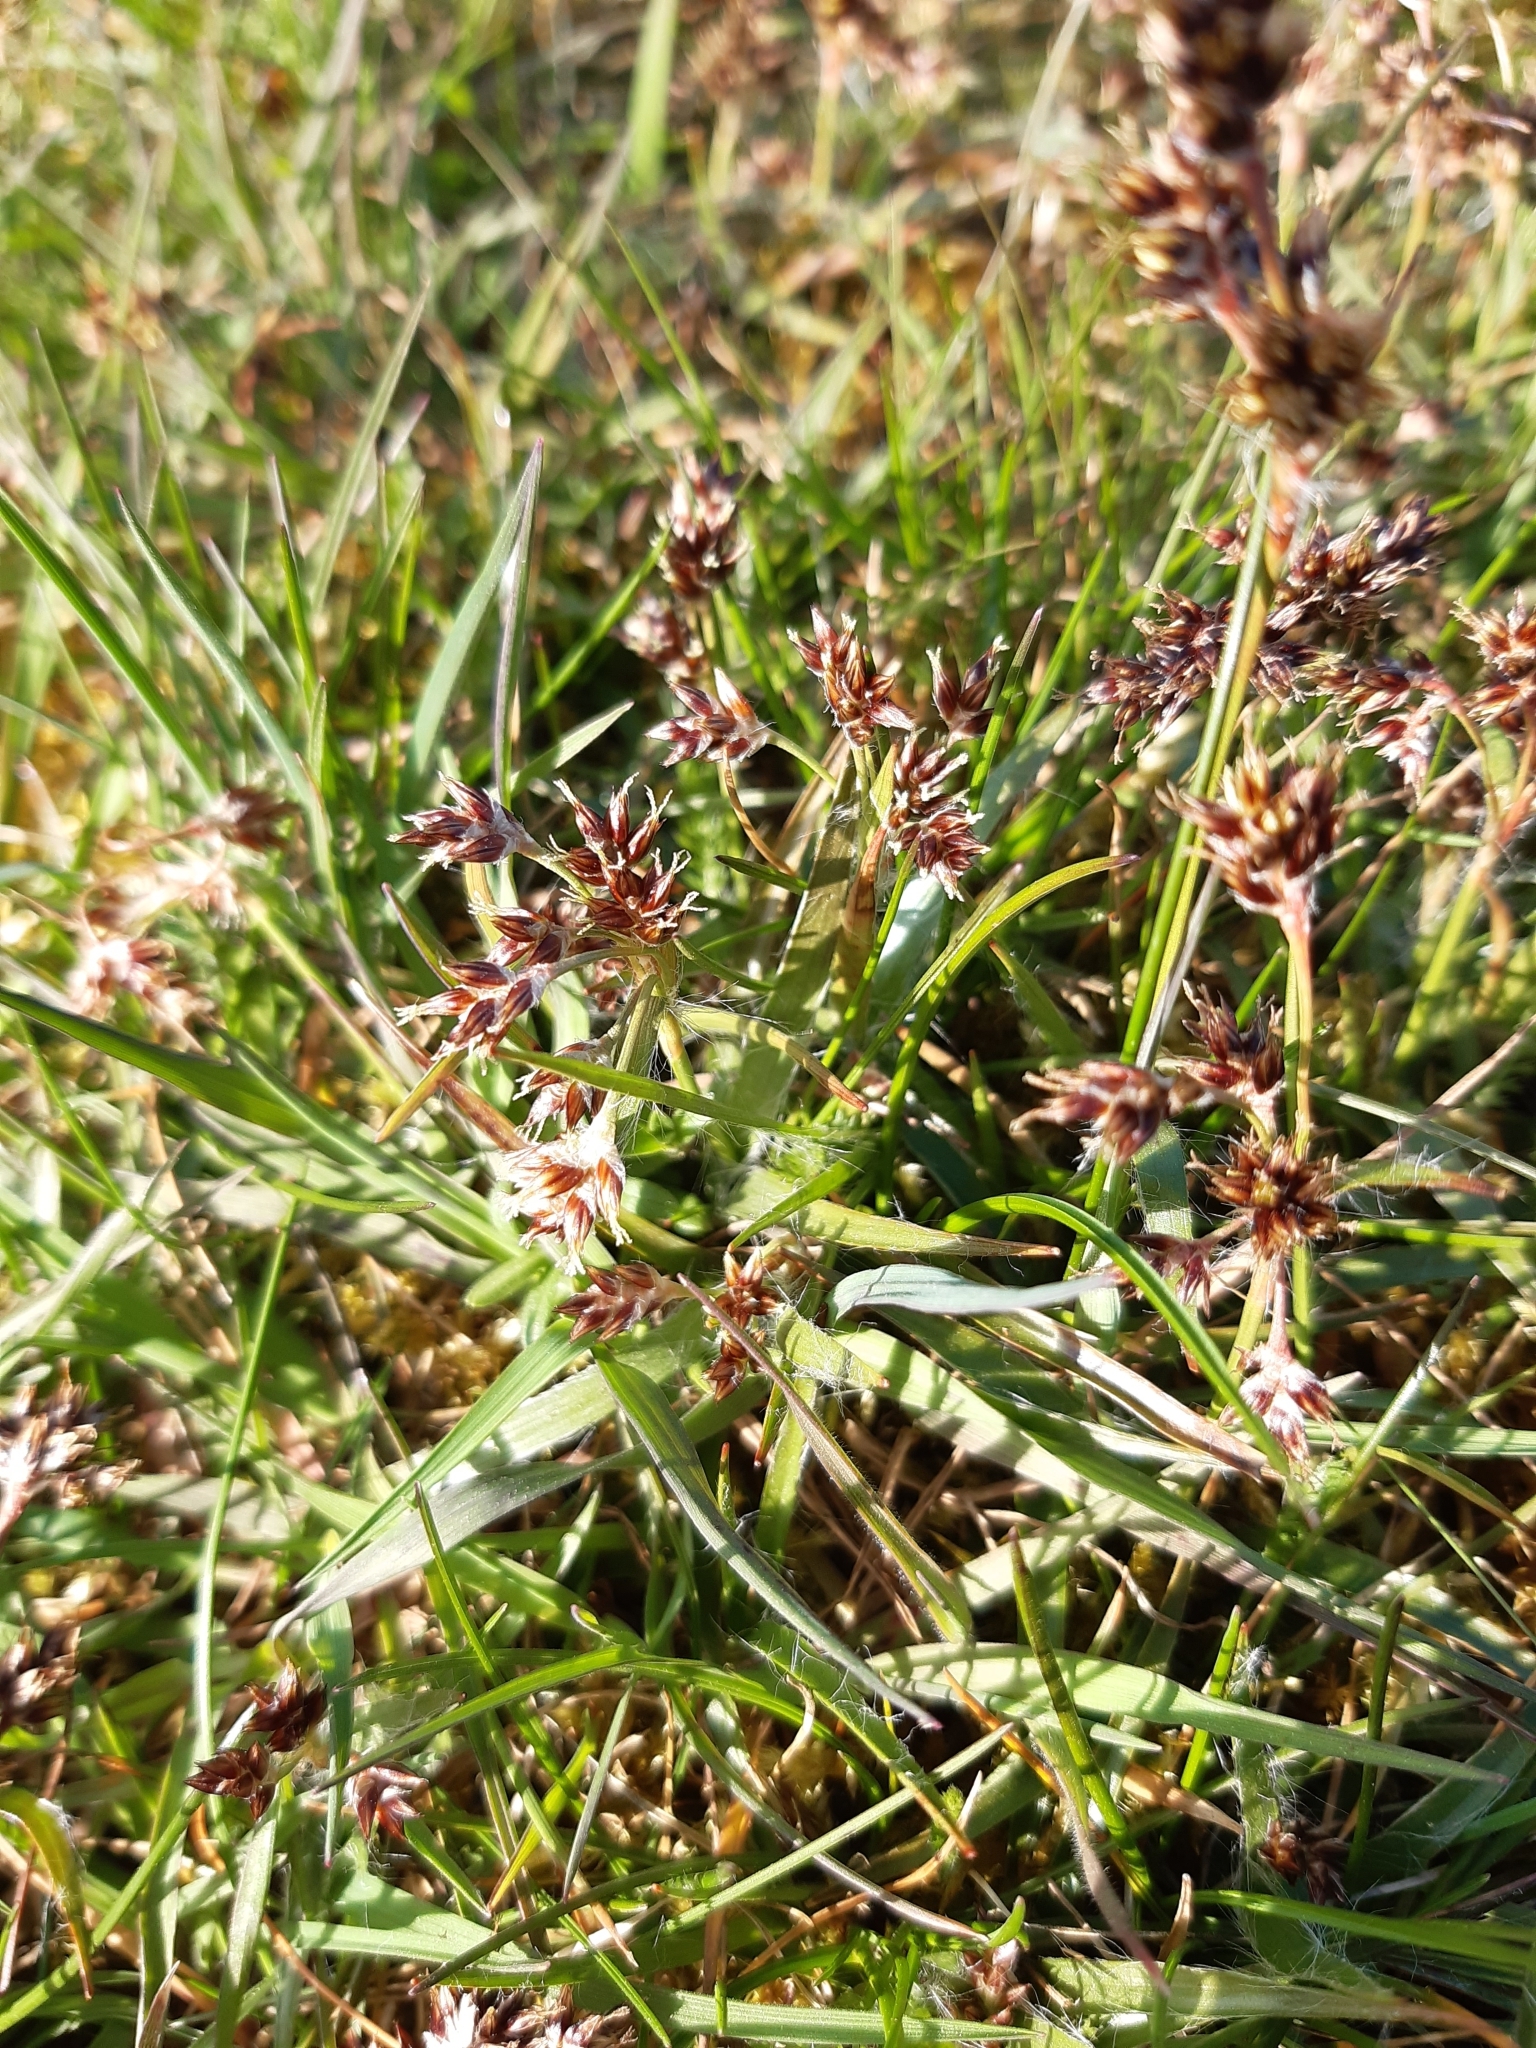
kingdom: Plantae
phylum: Tracheophyta
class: Liliopsida
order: Poales
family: Juncaceae
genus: Luzula
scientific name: Luzula campestris
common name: Field wood-rush
